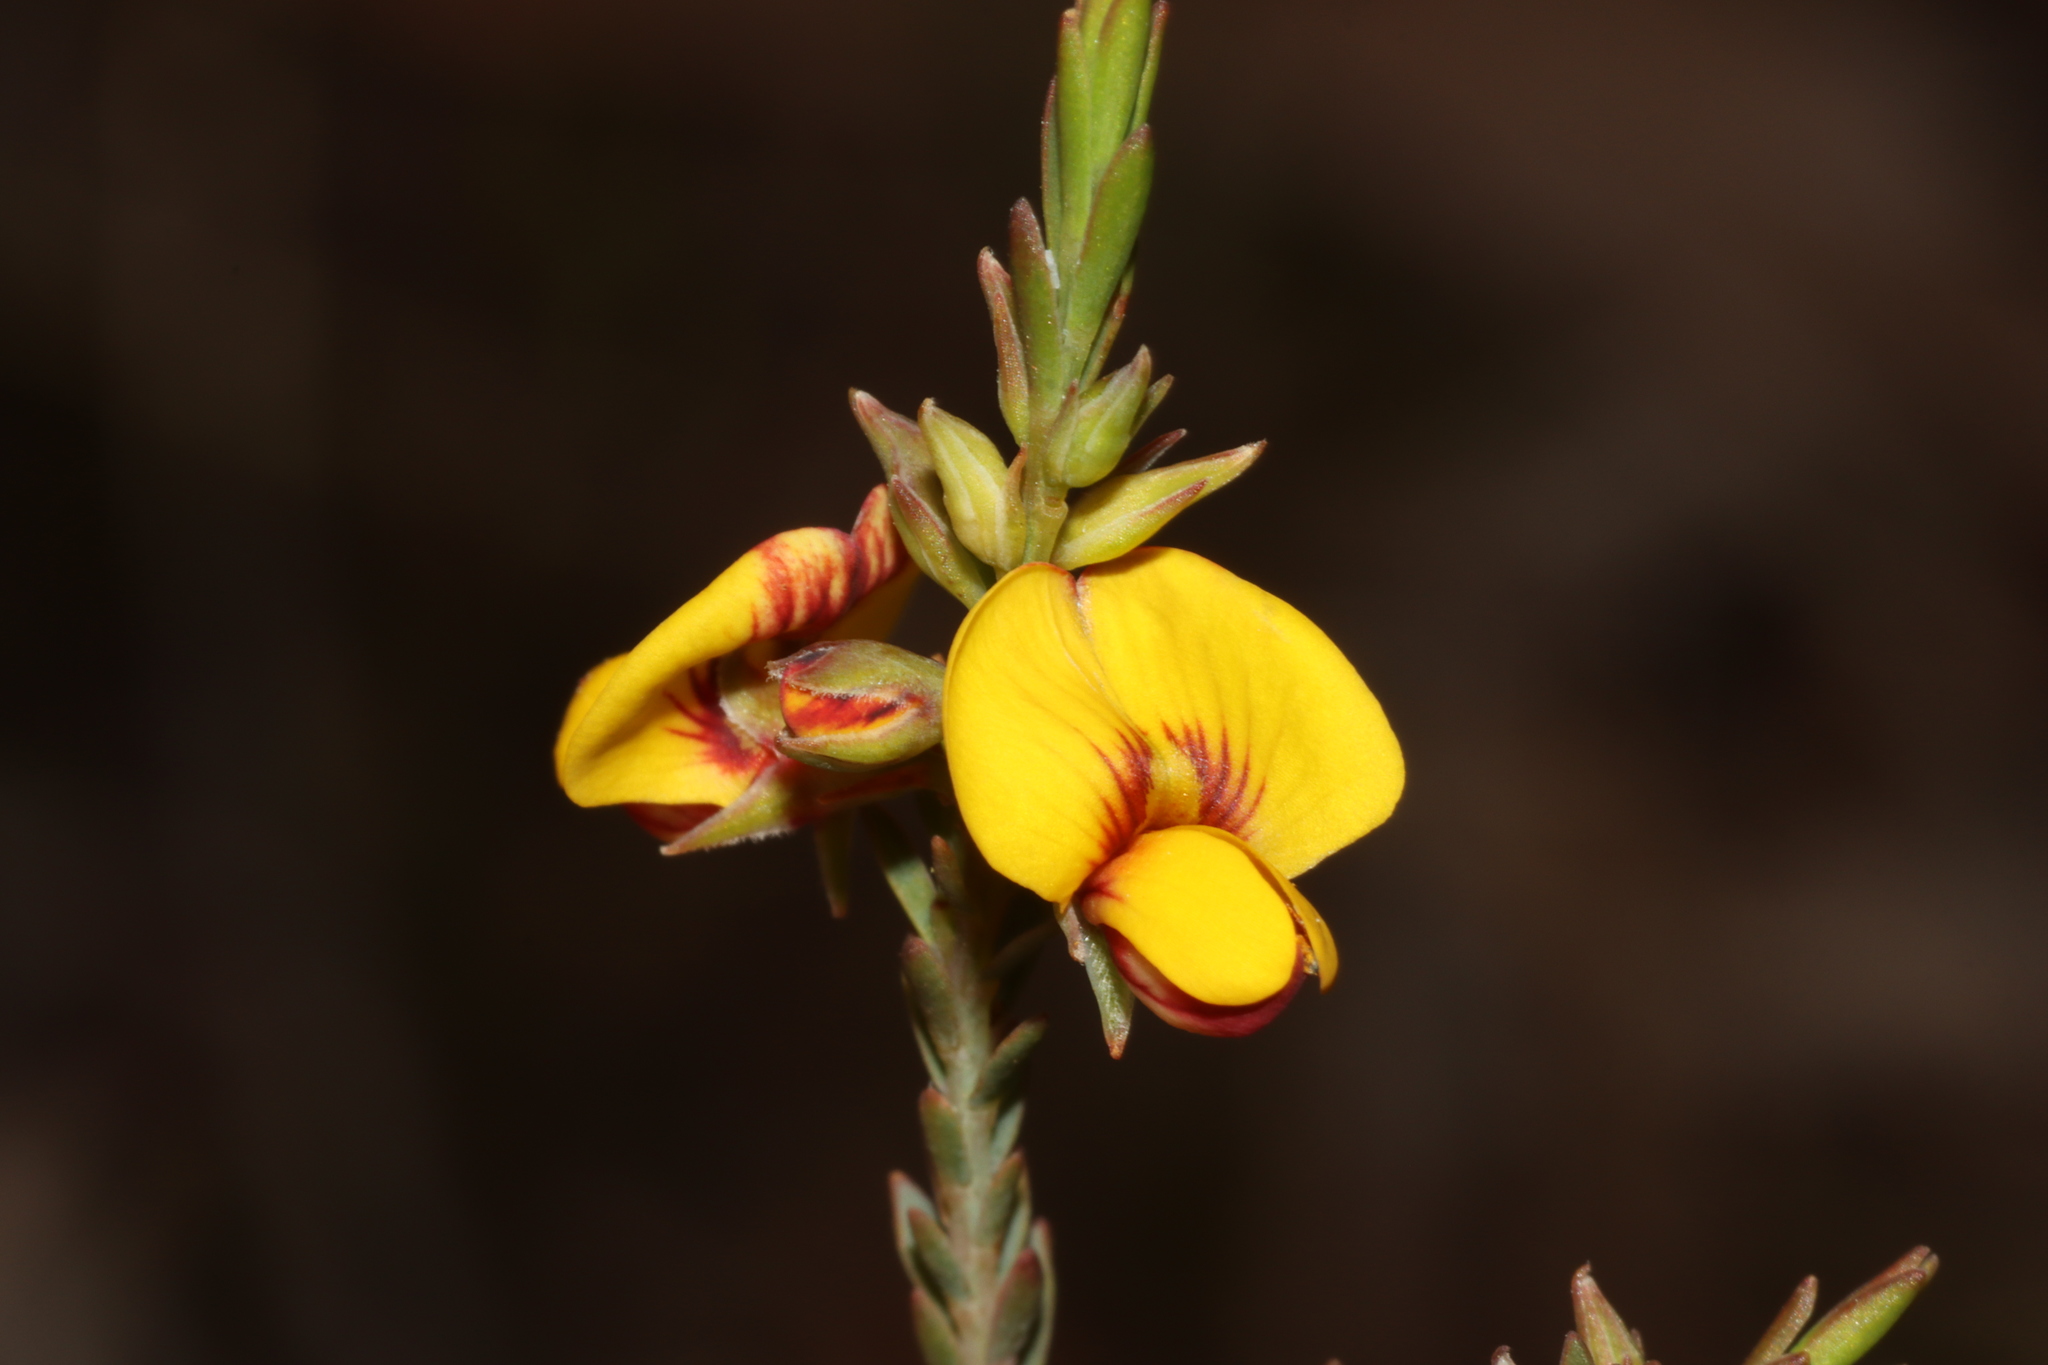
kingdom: Plantae
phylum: Tracheophyta
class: Magnoliopsida
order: Fabales
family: Fabaceae
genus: Eutaxia
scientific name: Eutaxia microphylla
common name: Mallee bush-pea
